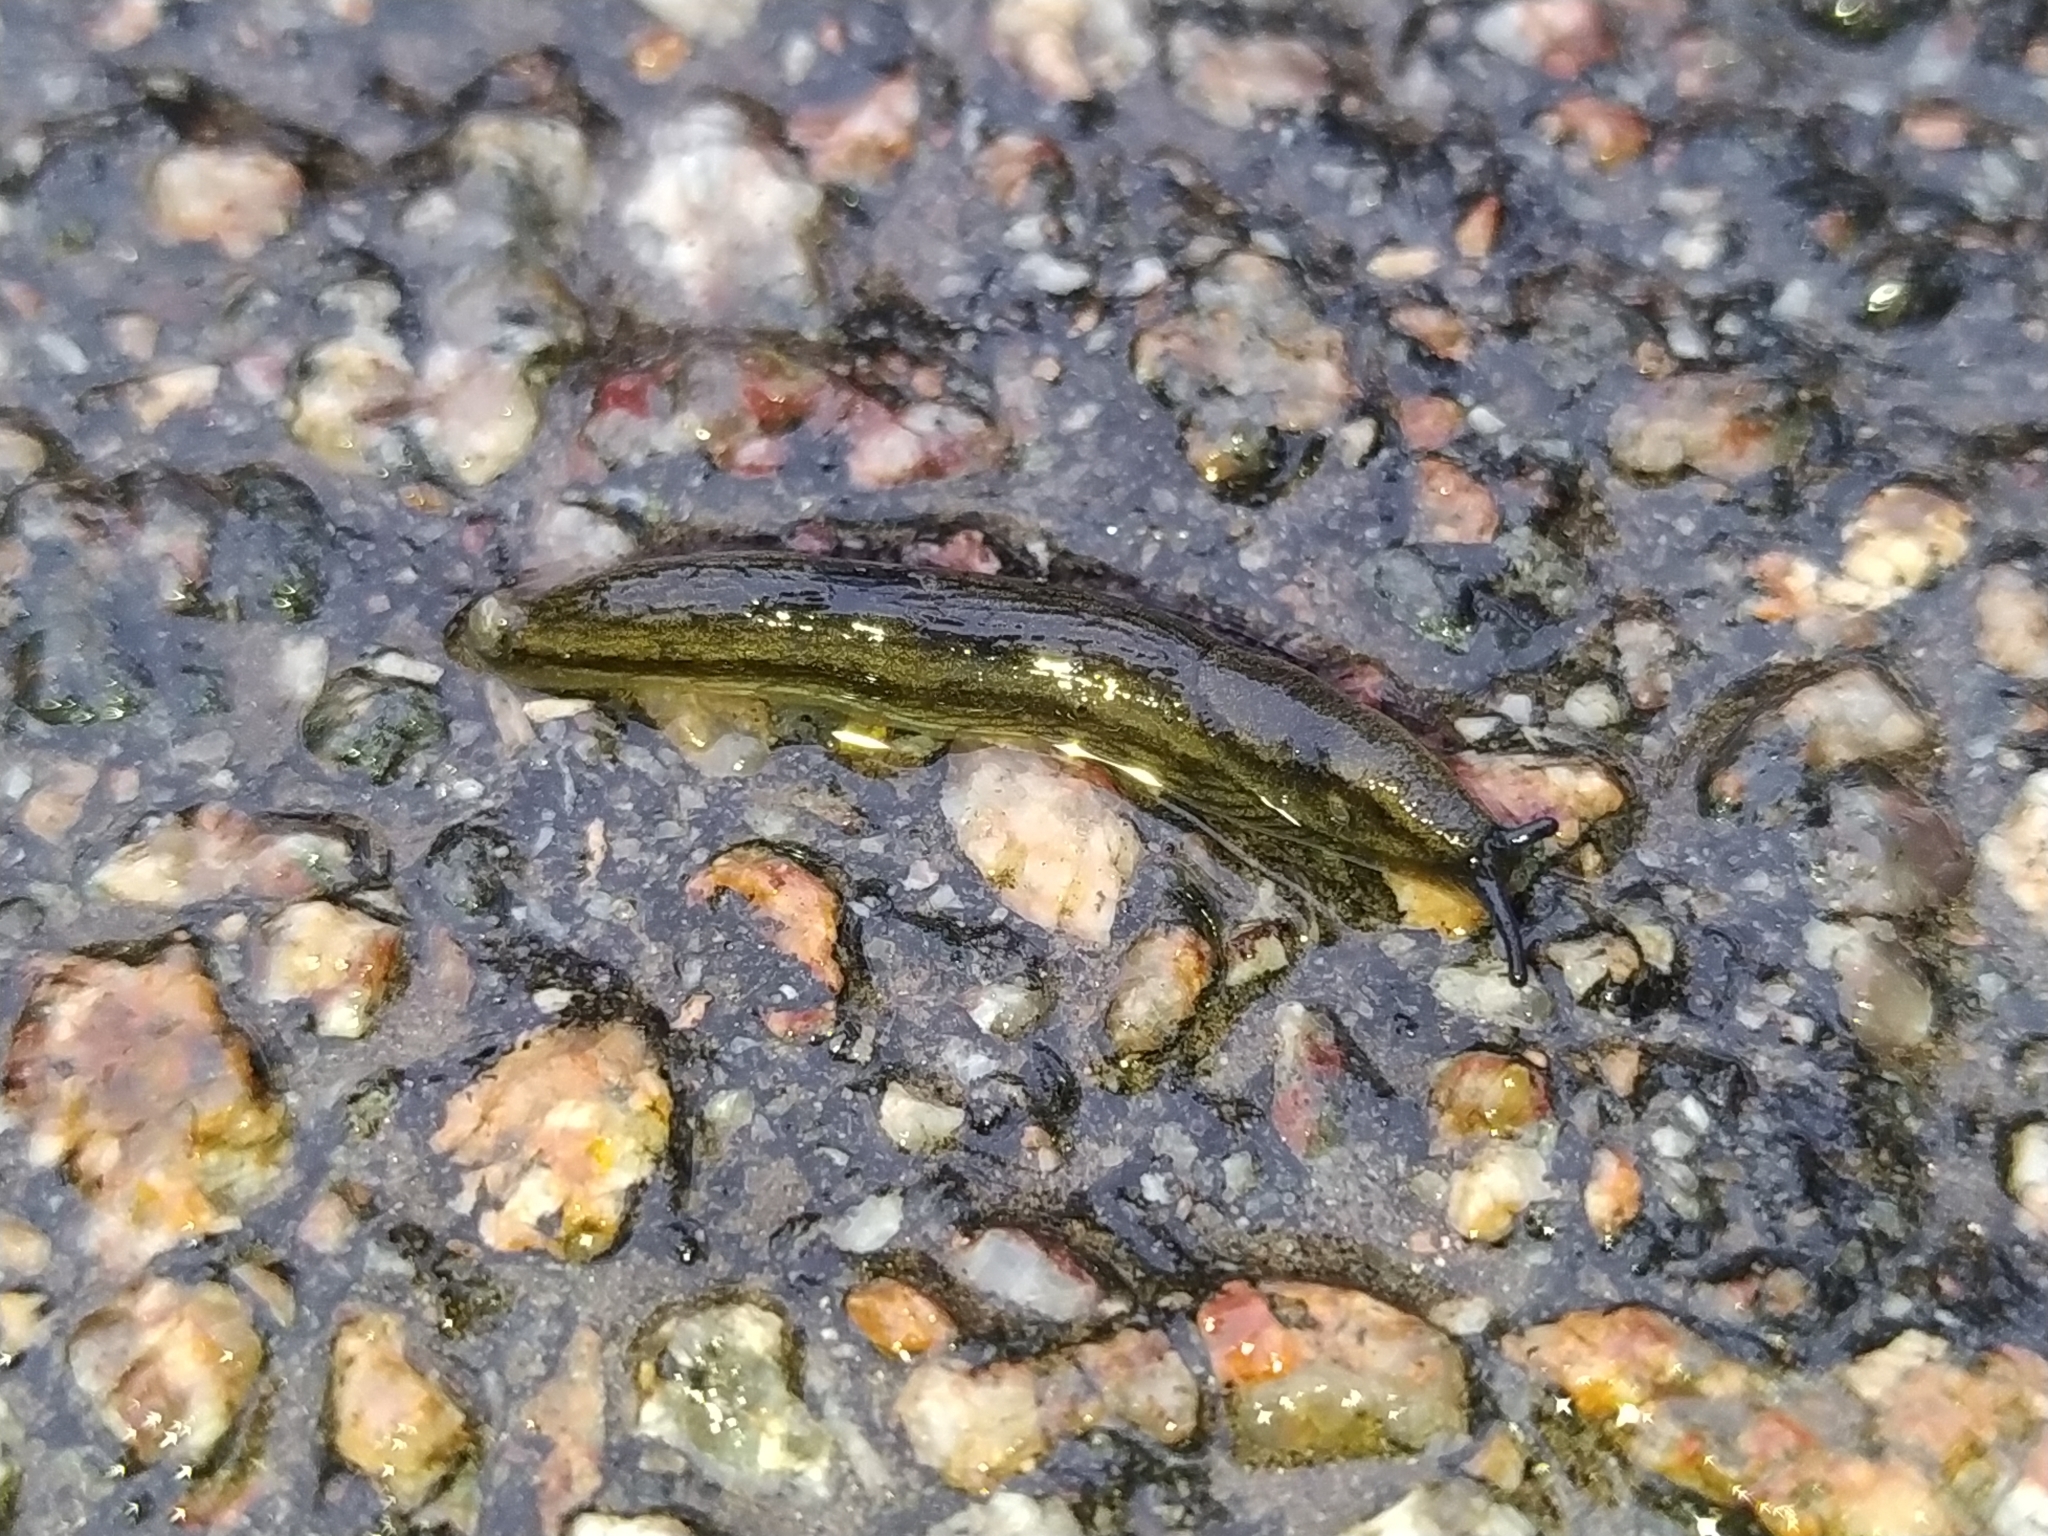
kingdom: Animalia
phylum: Mollusca
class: Gastropoda
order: Stylommatophora
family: Arionidae
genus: Arion
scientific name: Arion distinctus
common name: Darkface arion
